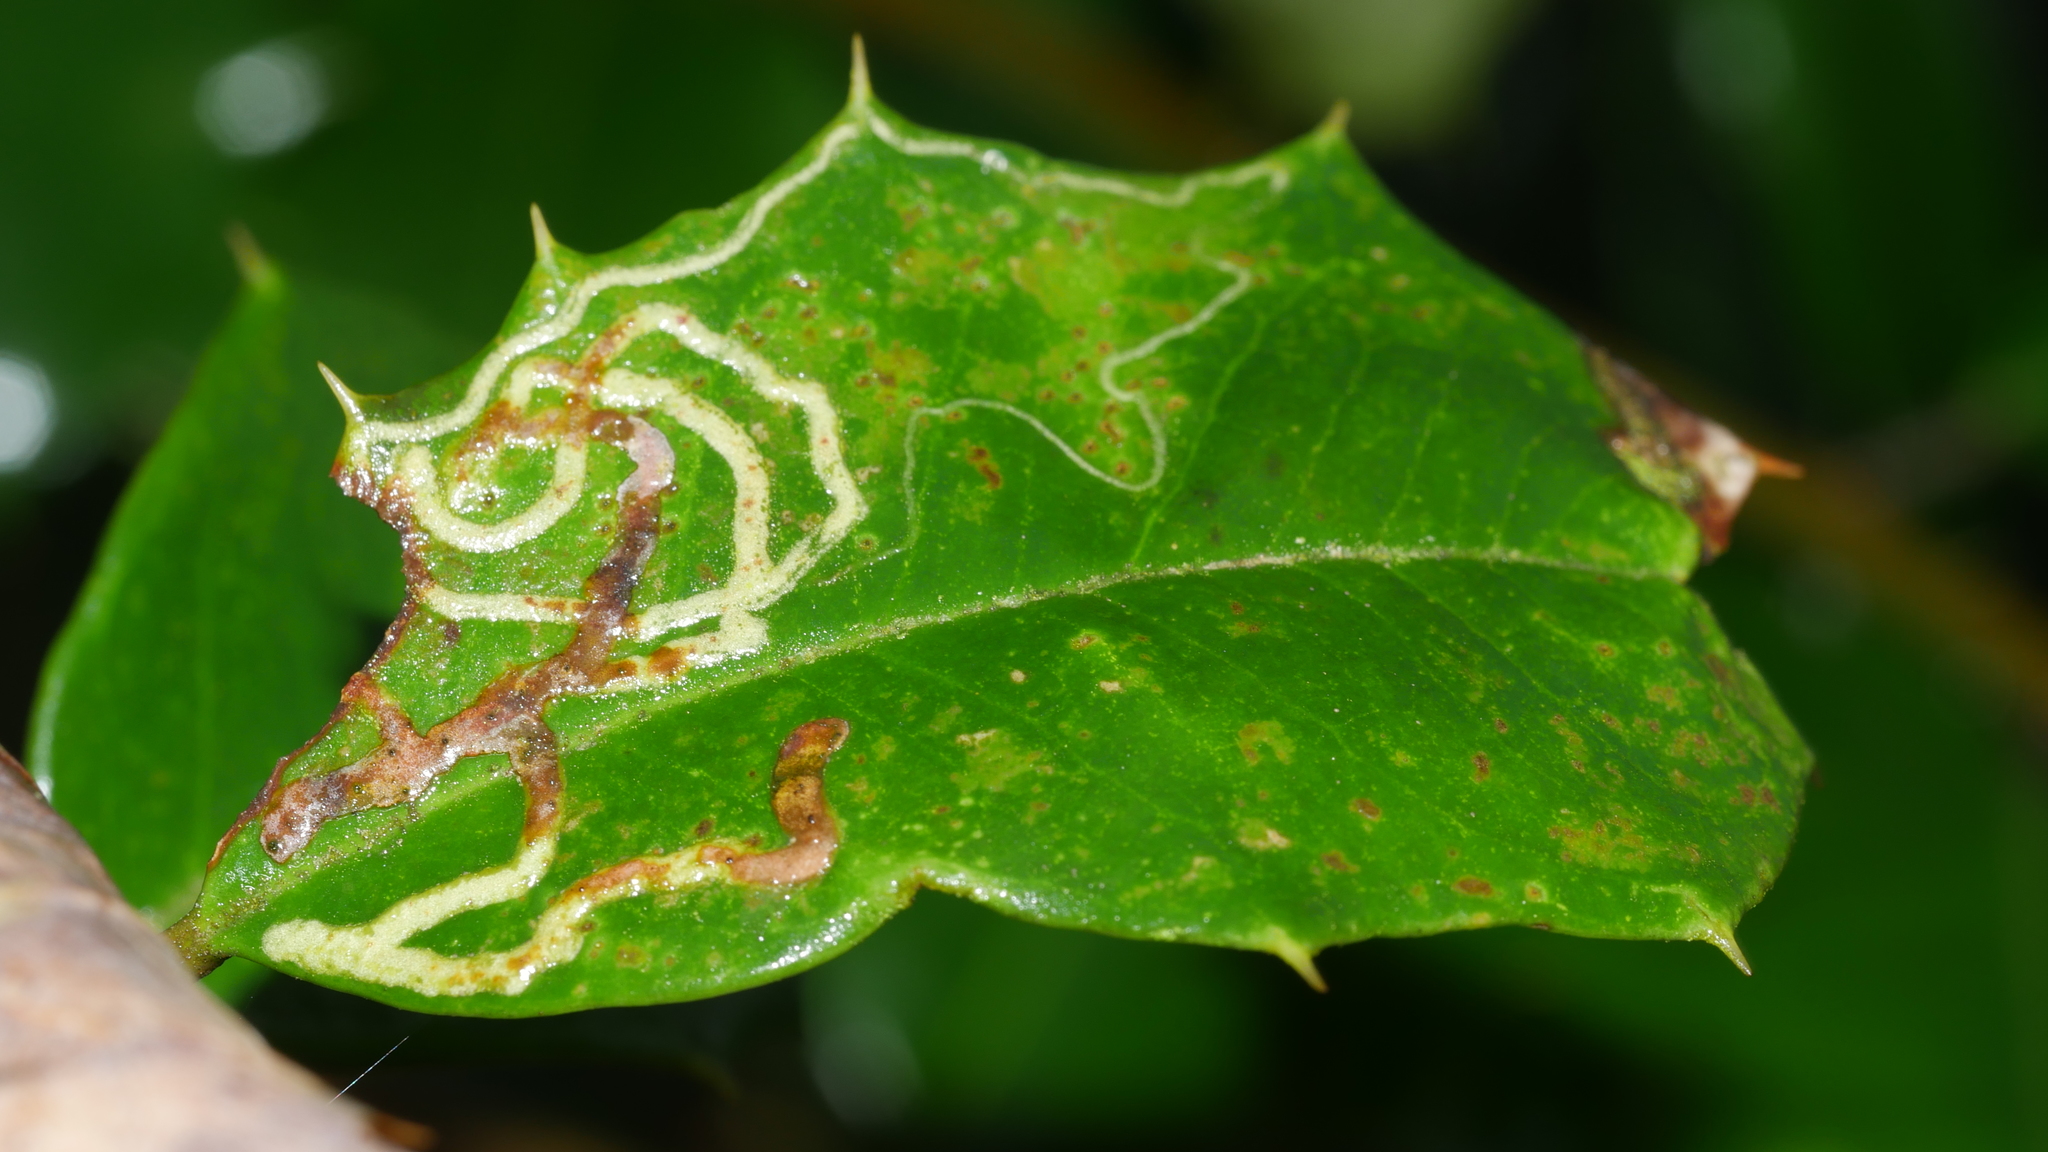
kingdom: Animalia
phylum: Arthropoda
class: Insecta
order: Diptera
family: Agromyzidae
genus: Phytomyza
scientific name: Phytomyza opacae
